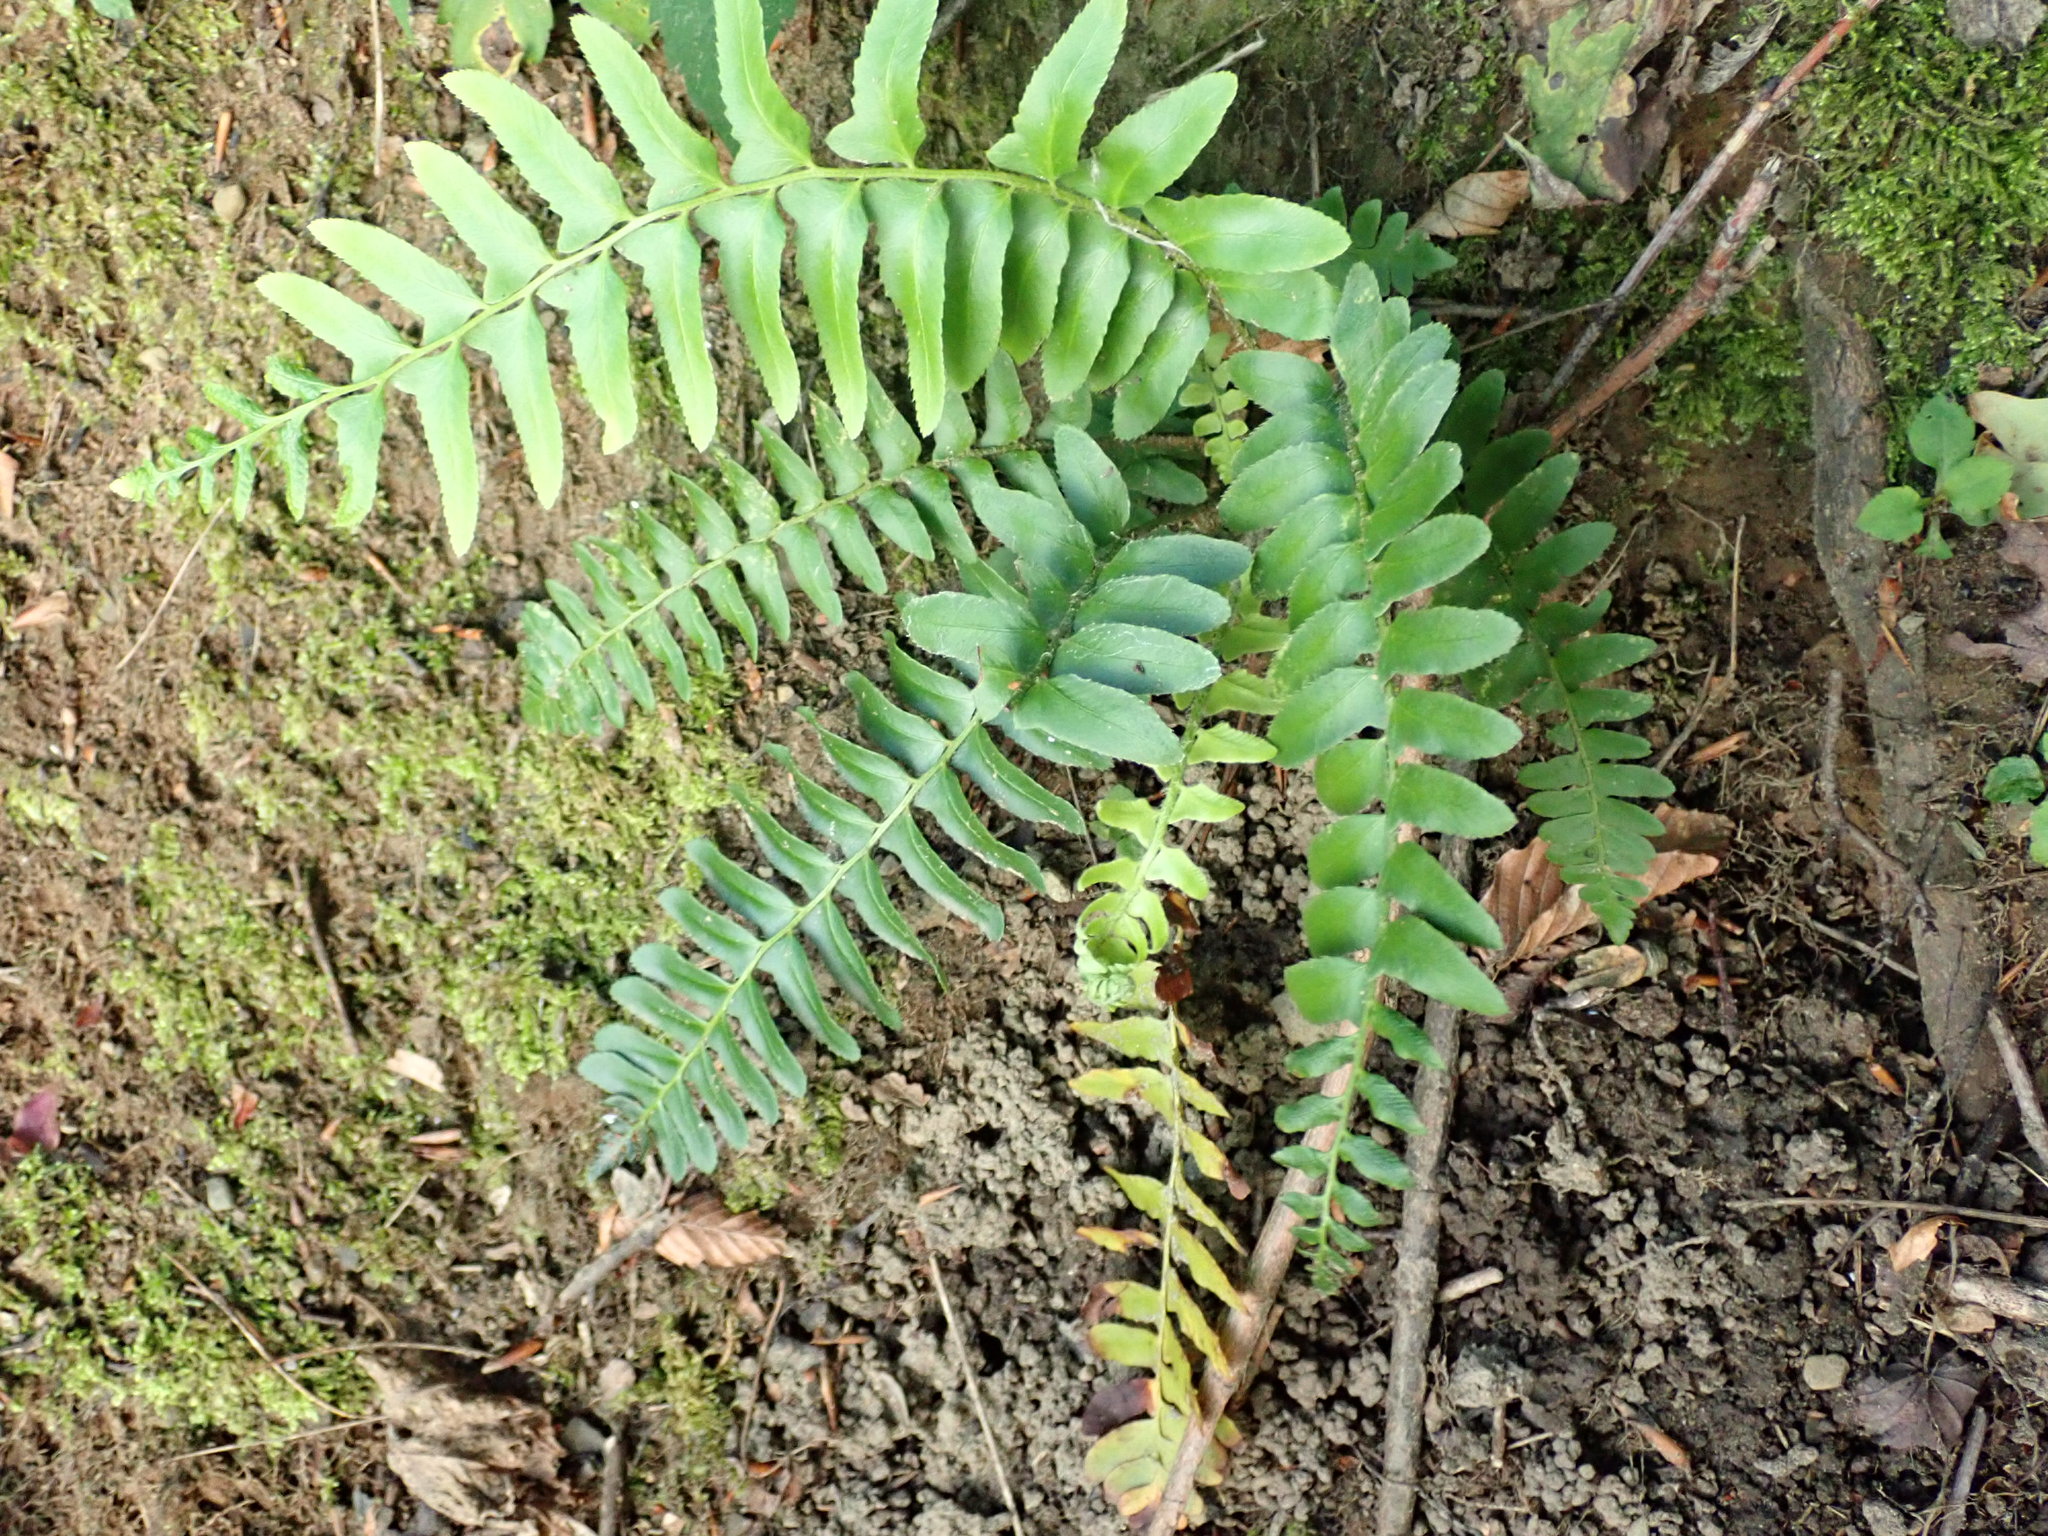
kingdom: Plantae
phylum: Tracheophyta
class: Polypodiopsida
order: Polypodiales
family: Dryopteridaceae
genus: Polystichum
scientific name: Polystichum acrostichoides
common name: Christmas fern
